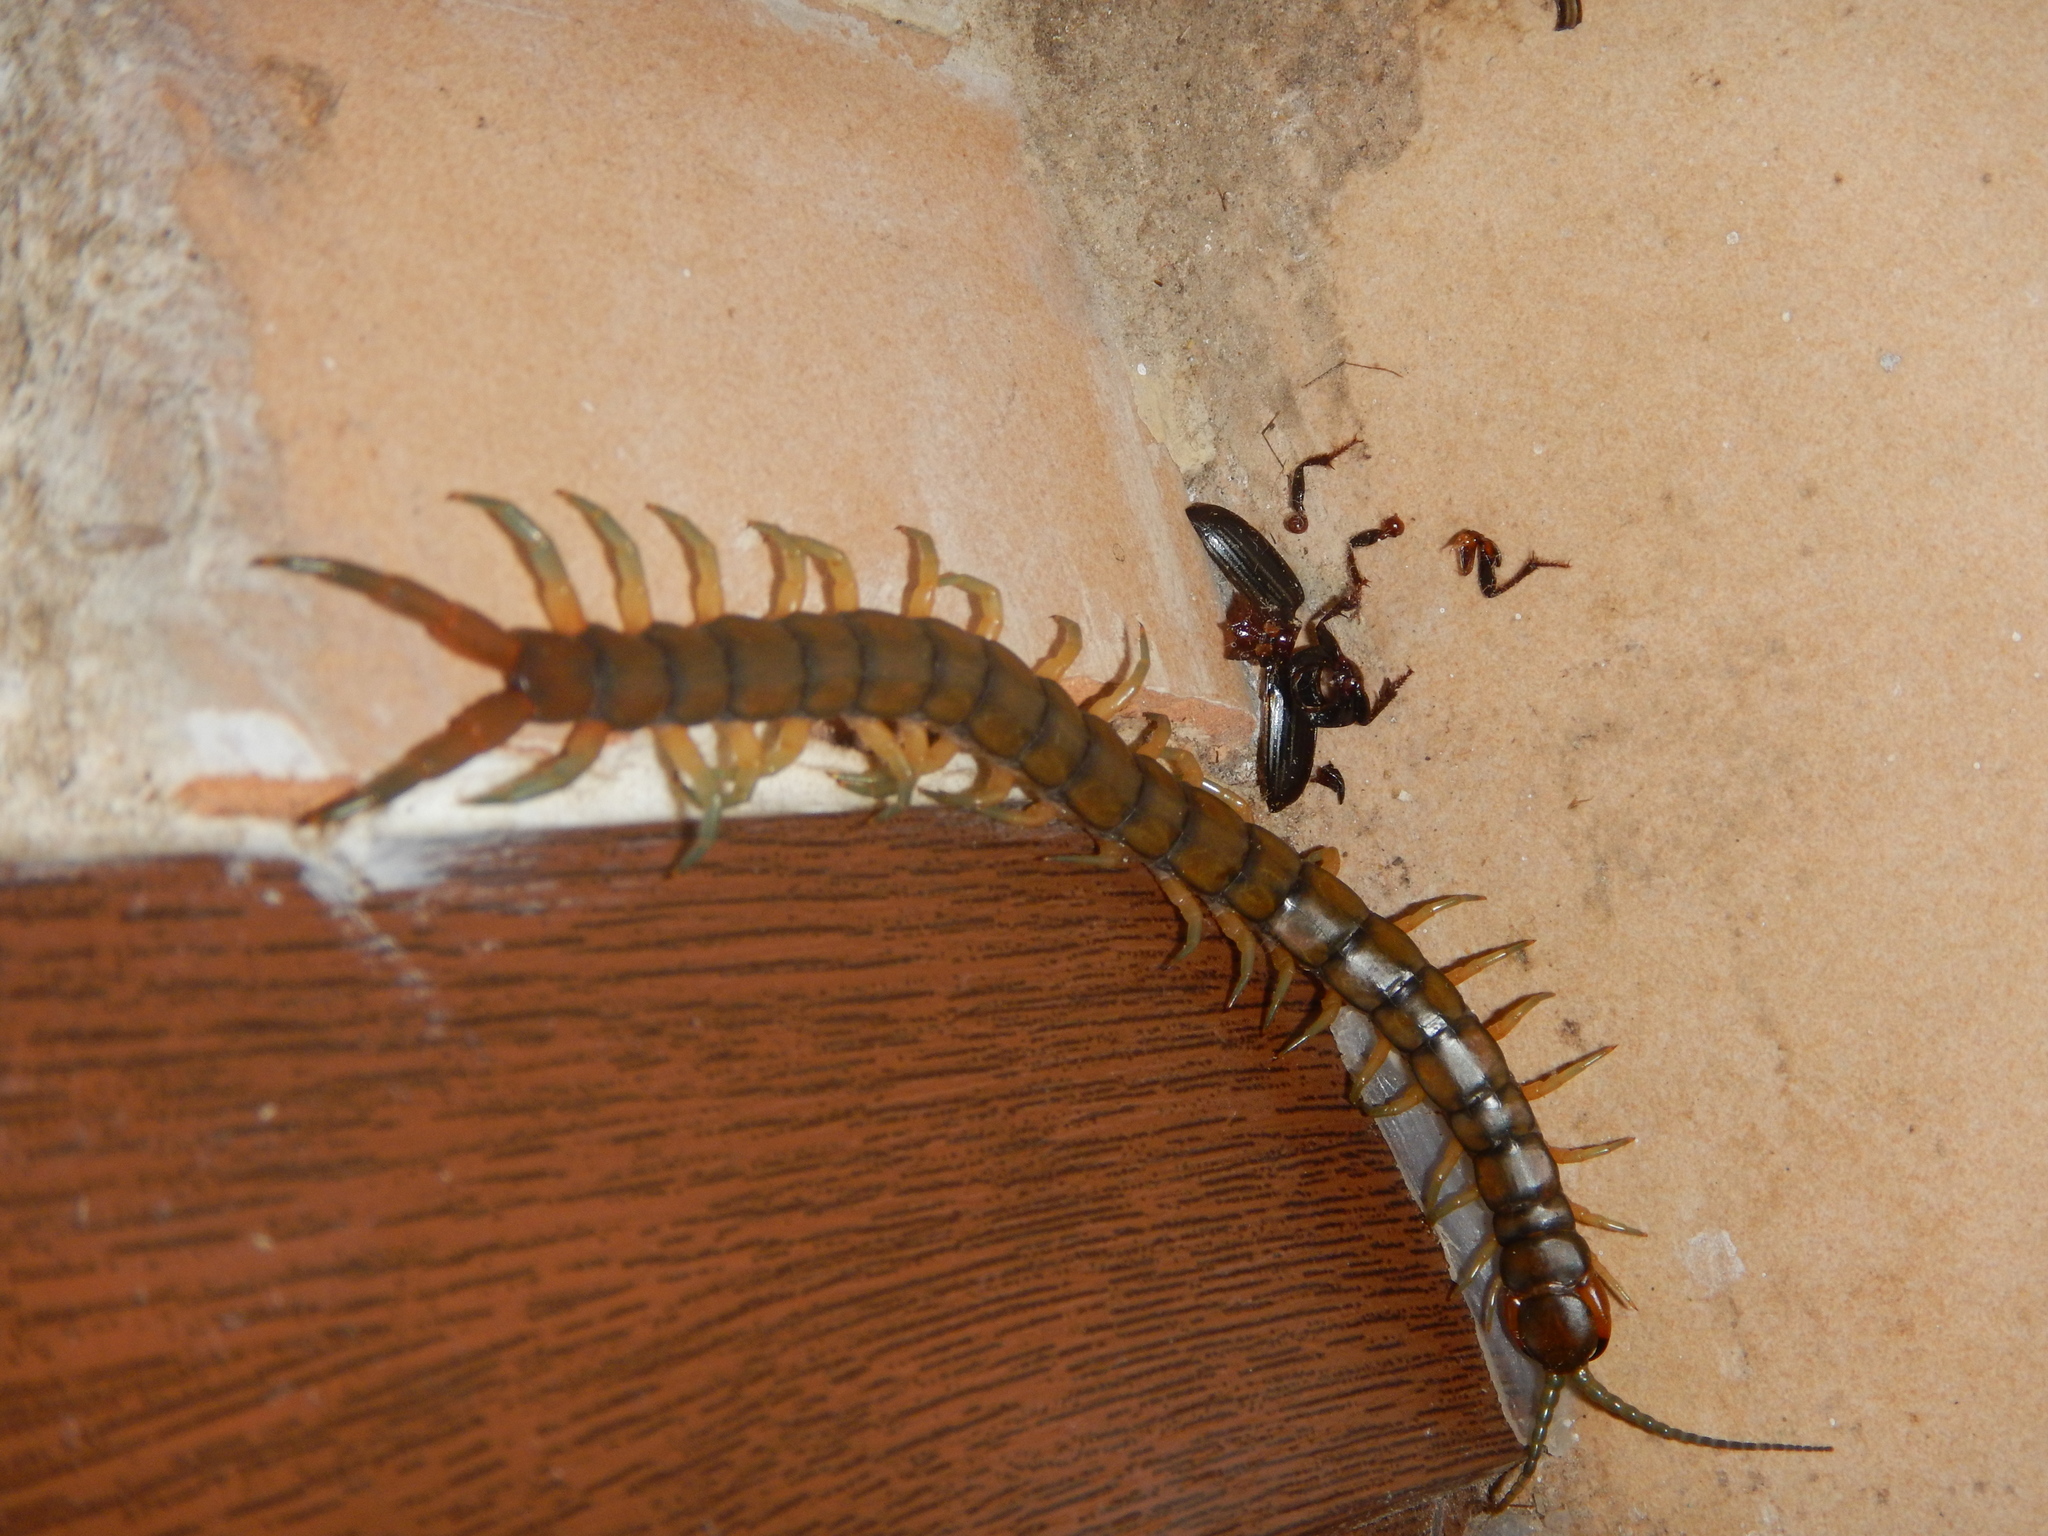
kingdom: Animalia
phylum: Arthropoda
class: Chilopoda
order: Scolopendromorpha
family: Scolopendridae
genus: Scolopendra
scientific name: Scolopendra cingulata
